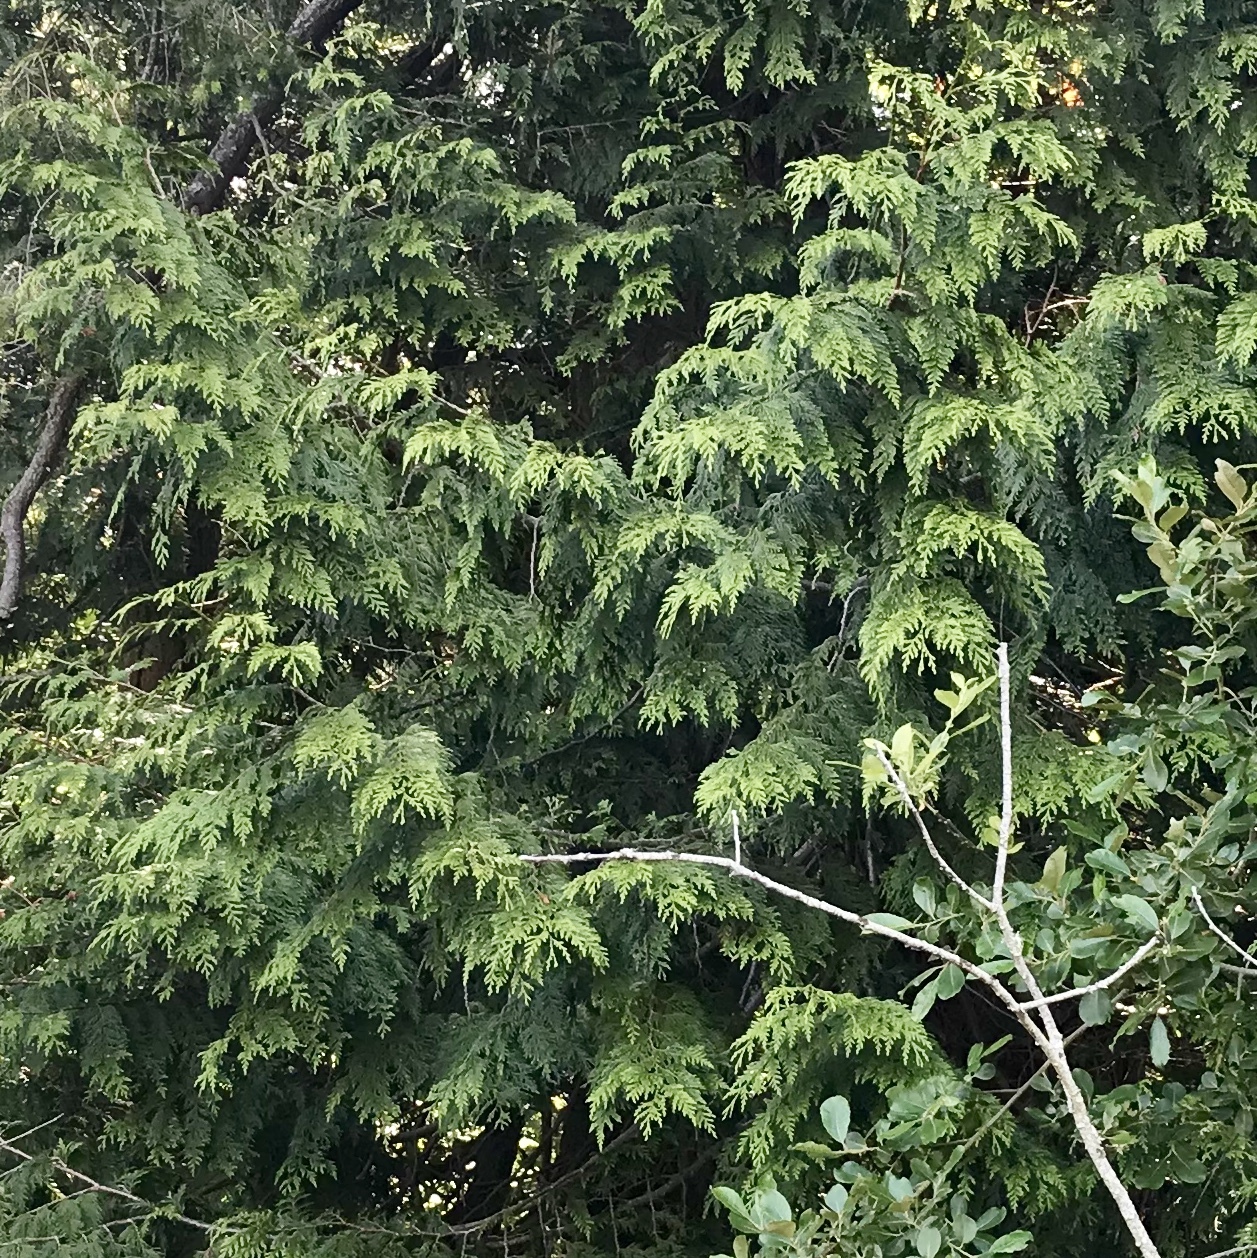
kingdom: Plantae
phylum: Tracheophyta
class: Pinopsida
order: Pinales
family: Cupressaceae
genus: Thuja
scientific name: Thuja plicata
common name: Western red-cedar
